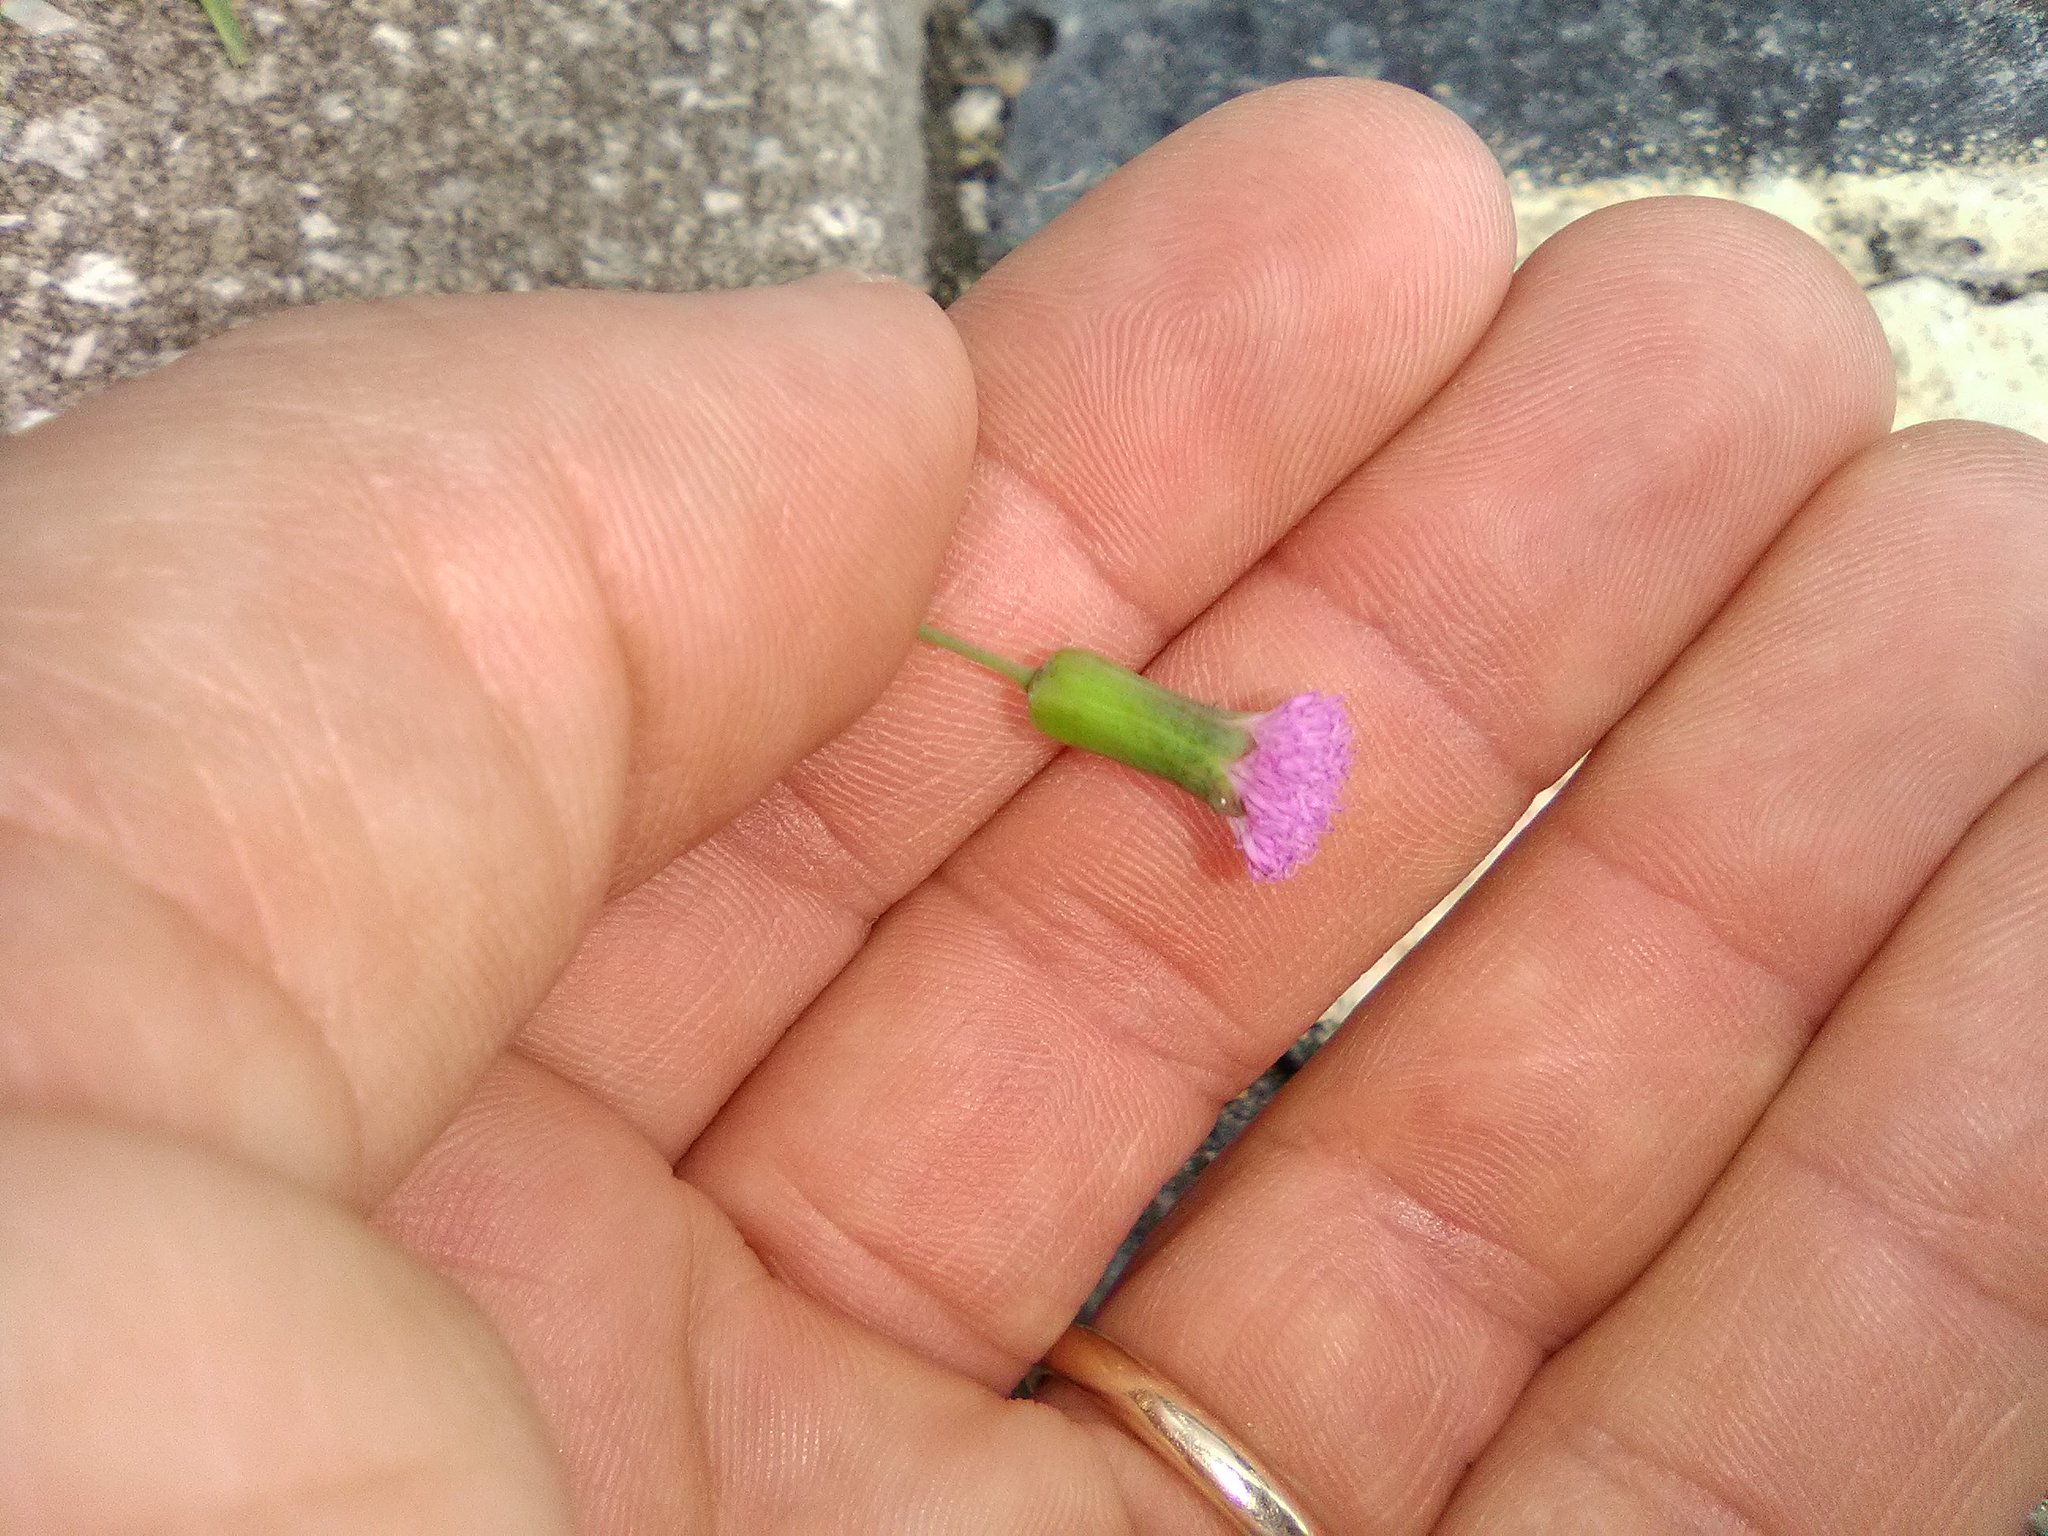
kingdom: Plantae
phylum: Tracheophyta
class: Magnoliopsida
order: Asterales
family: Asteraceae
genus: Emilia
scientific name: Emilia sonchifolia
